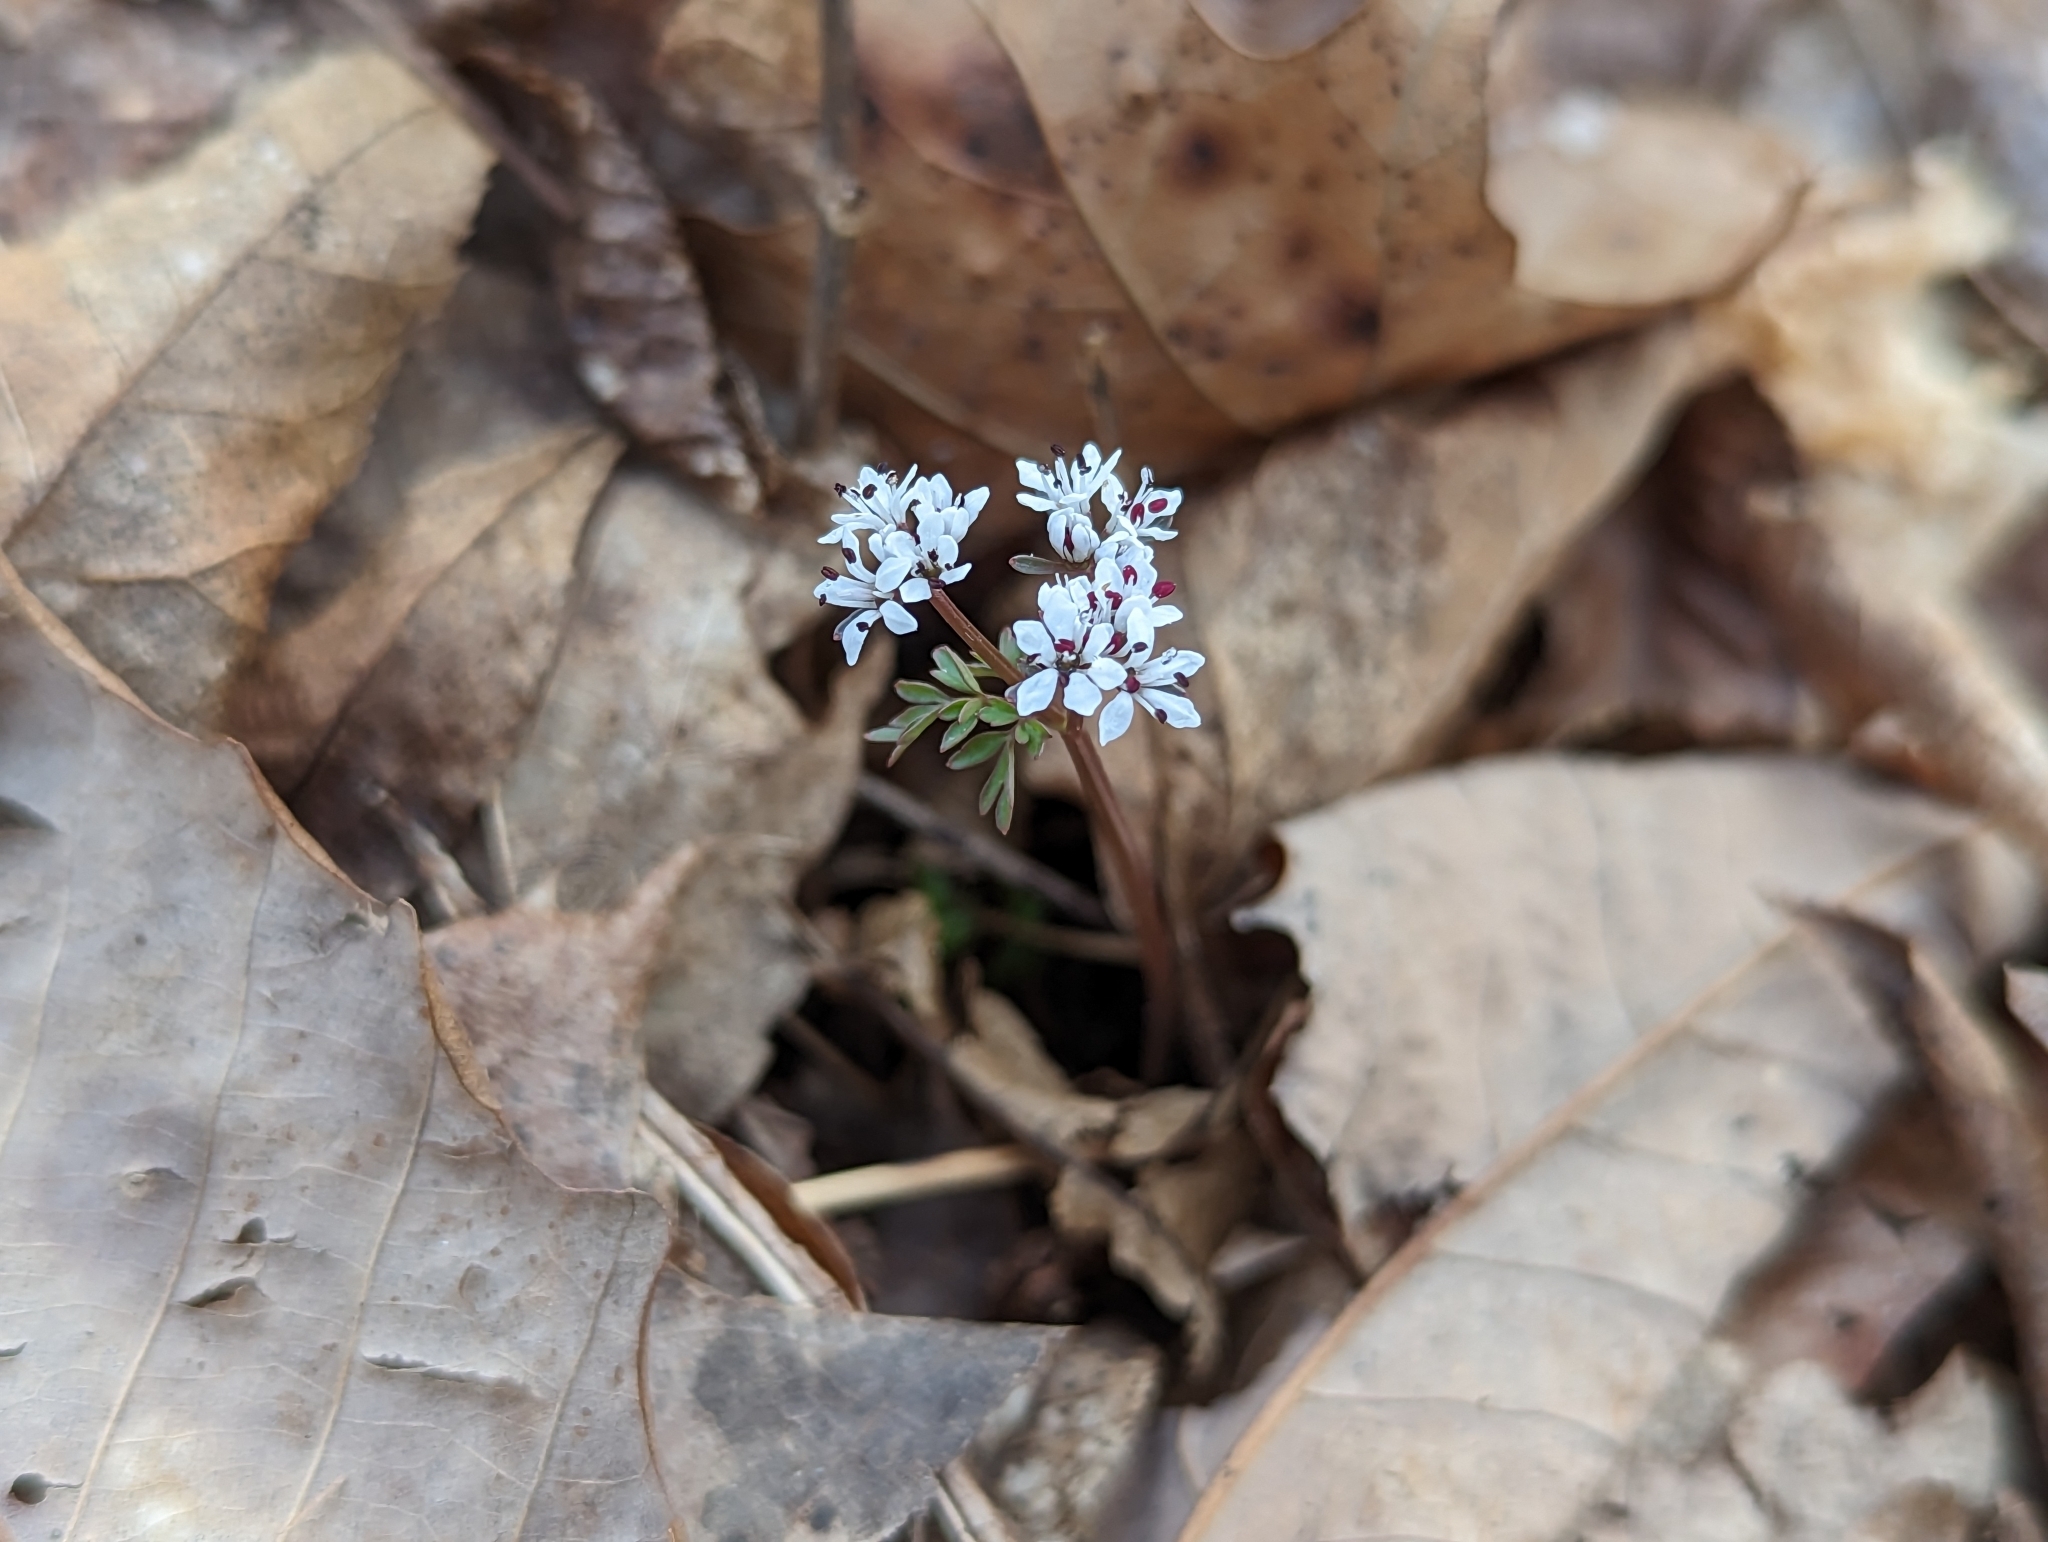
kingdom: Plantae
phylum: Tracheophyta
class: Magnoliopsida
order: Apiales
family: Apiaceae
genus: Erigenia
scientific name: Erigenia bulbosa
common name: Pepper-and-salt
